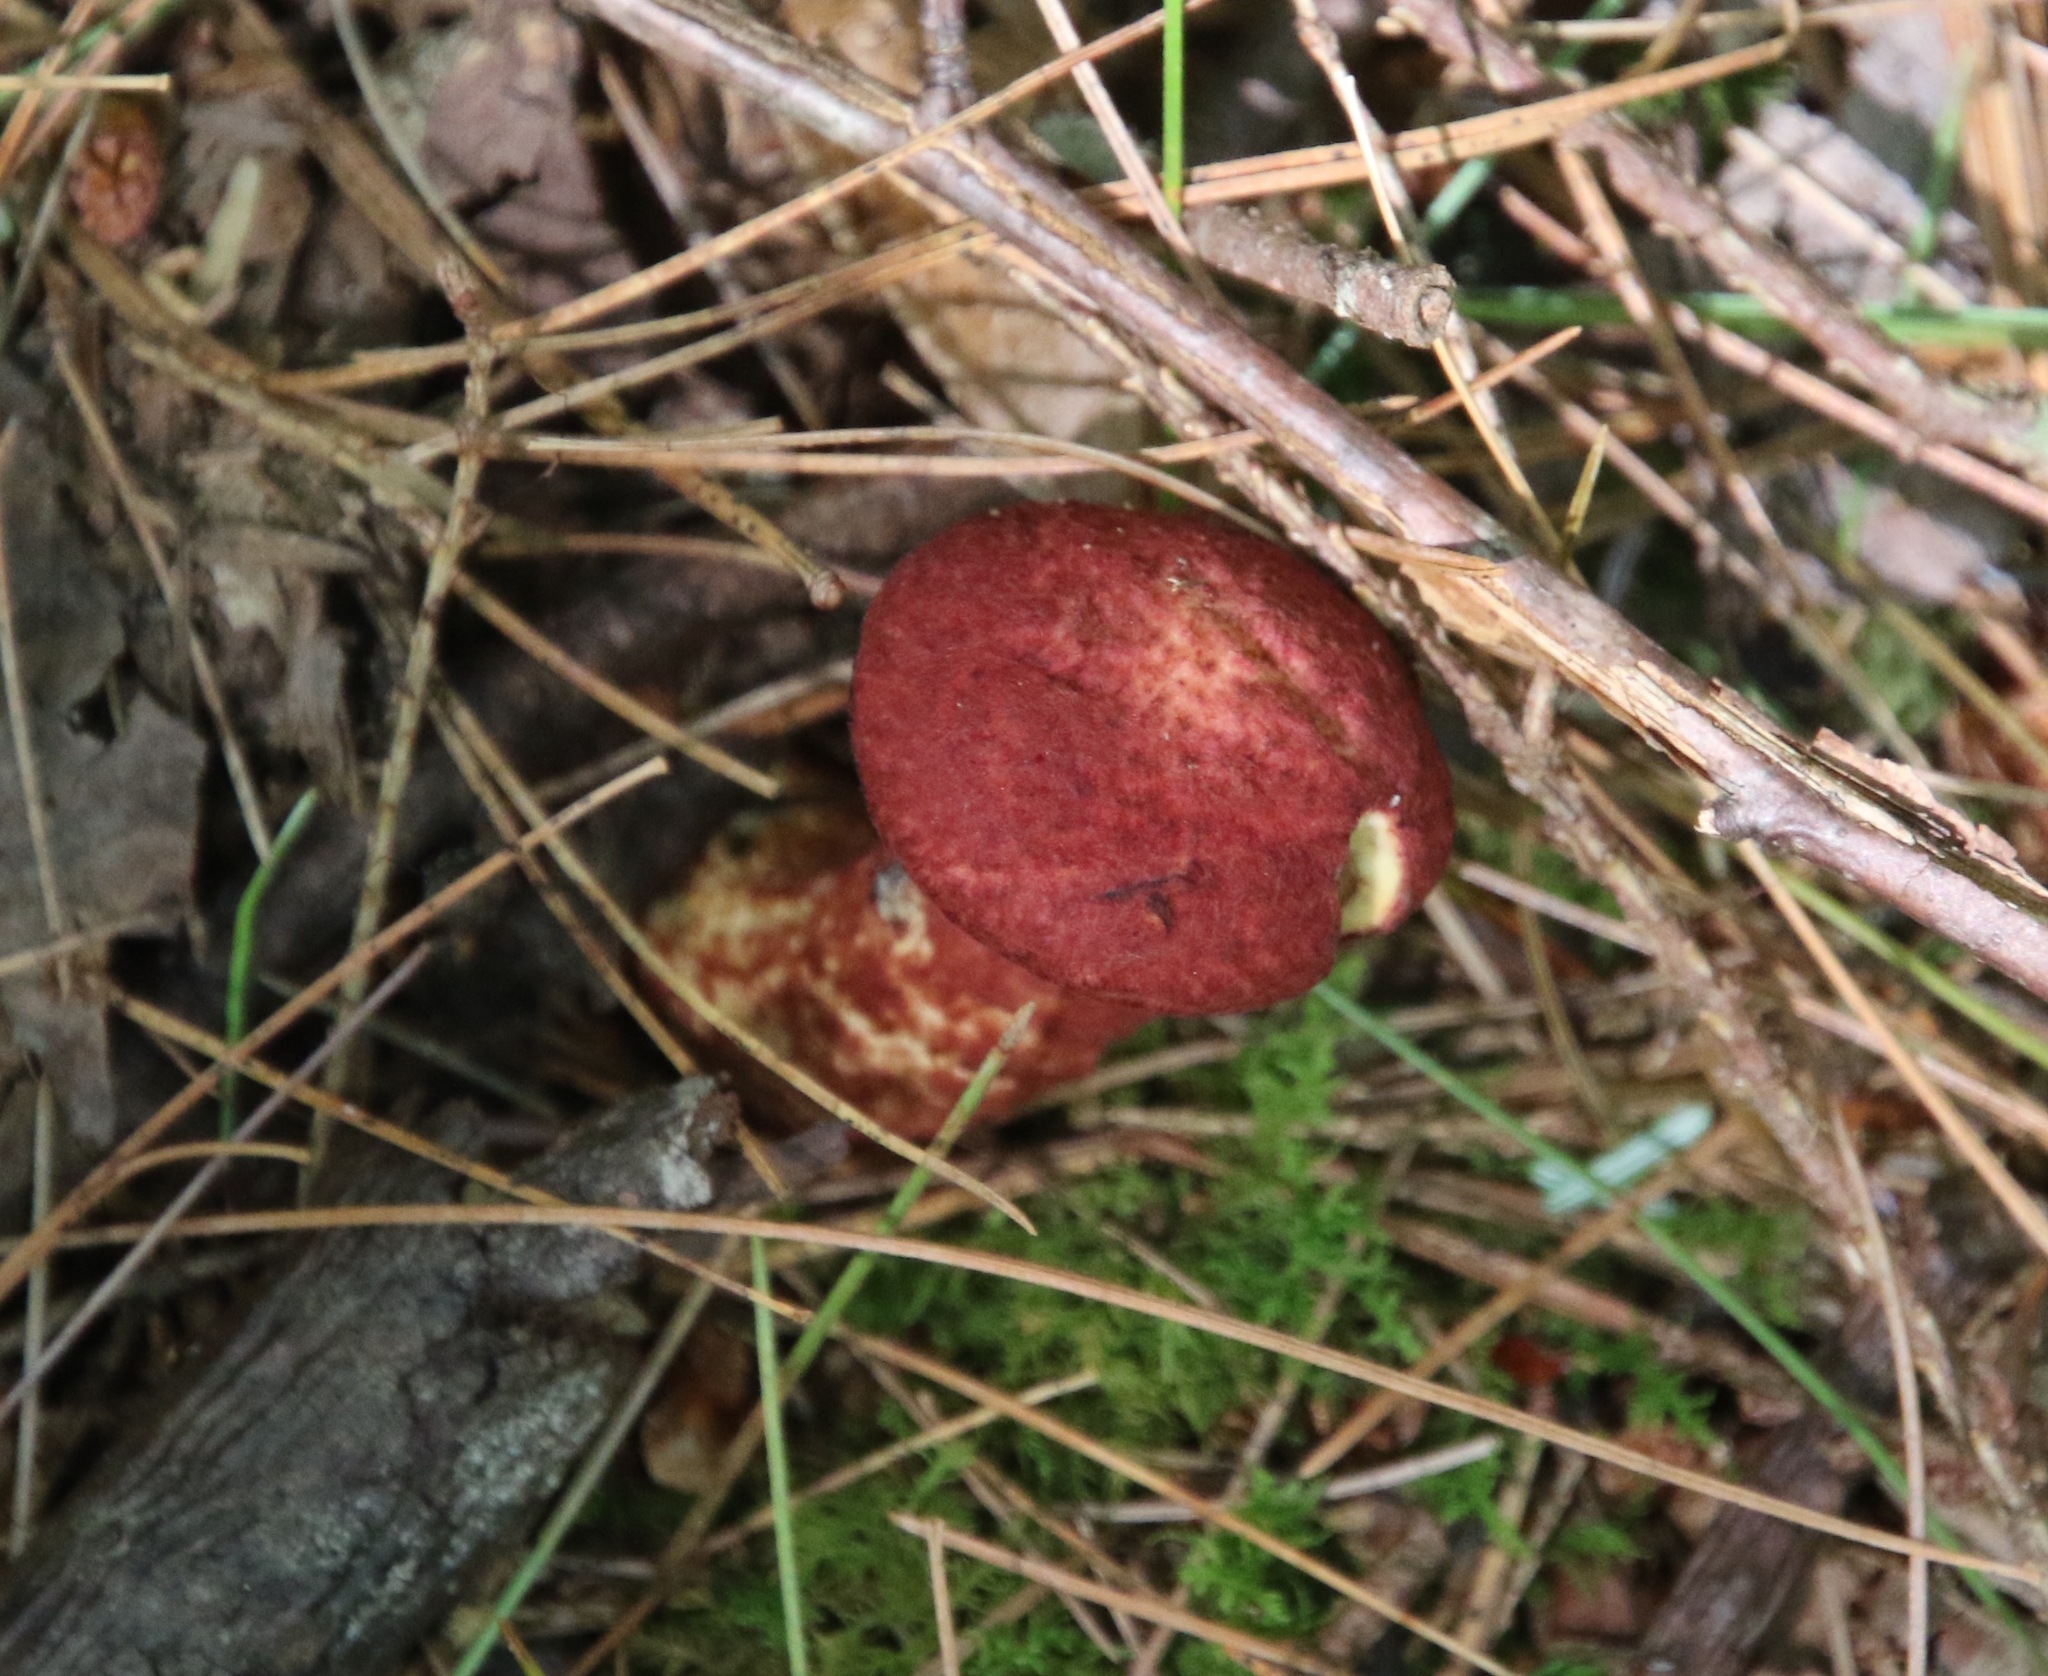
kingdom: Fungi
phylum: Basidiomycota
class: Agaricomycetes
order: Boletales
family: Suillaceae
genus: Suillus
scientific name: Suillus spraguei
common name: Painted suillus
